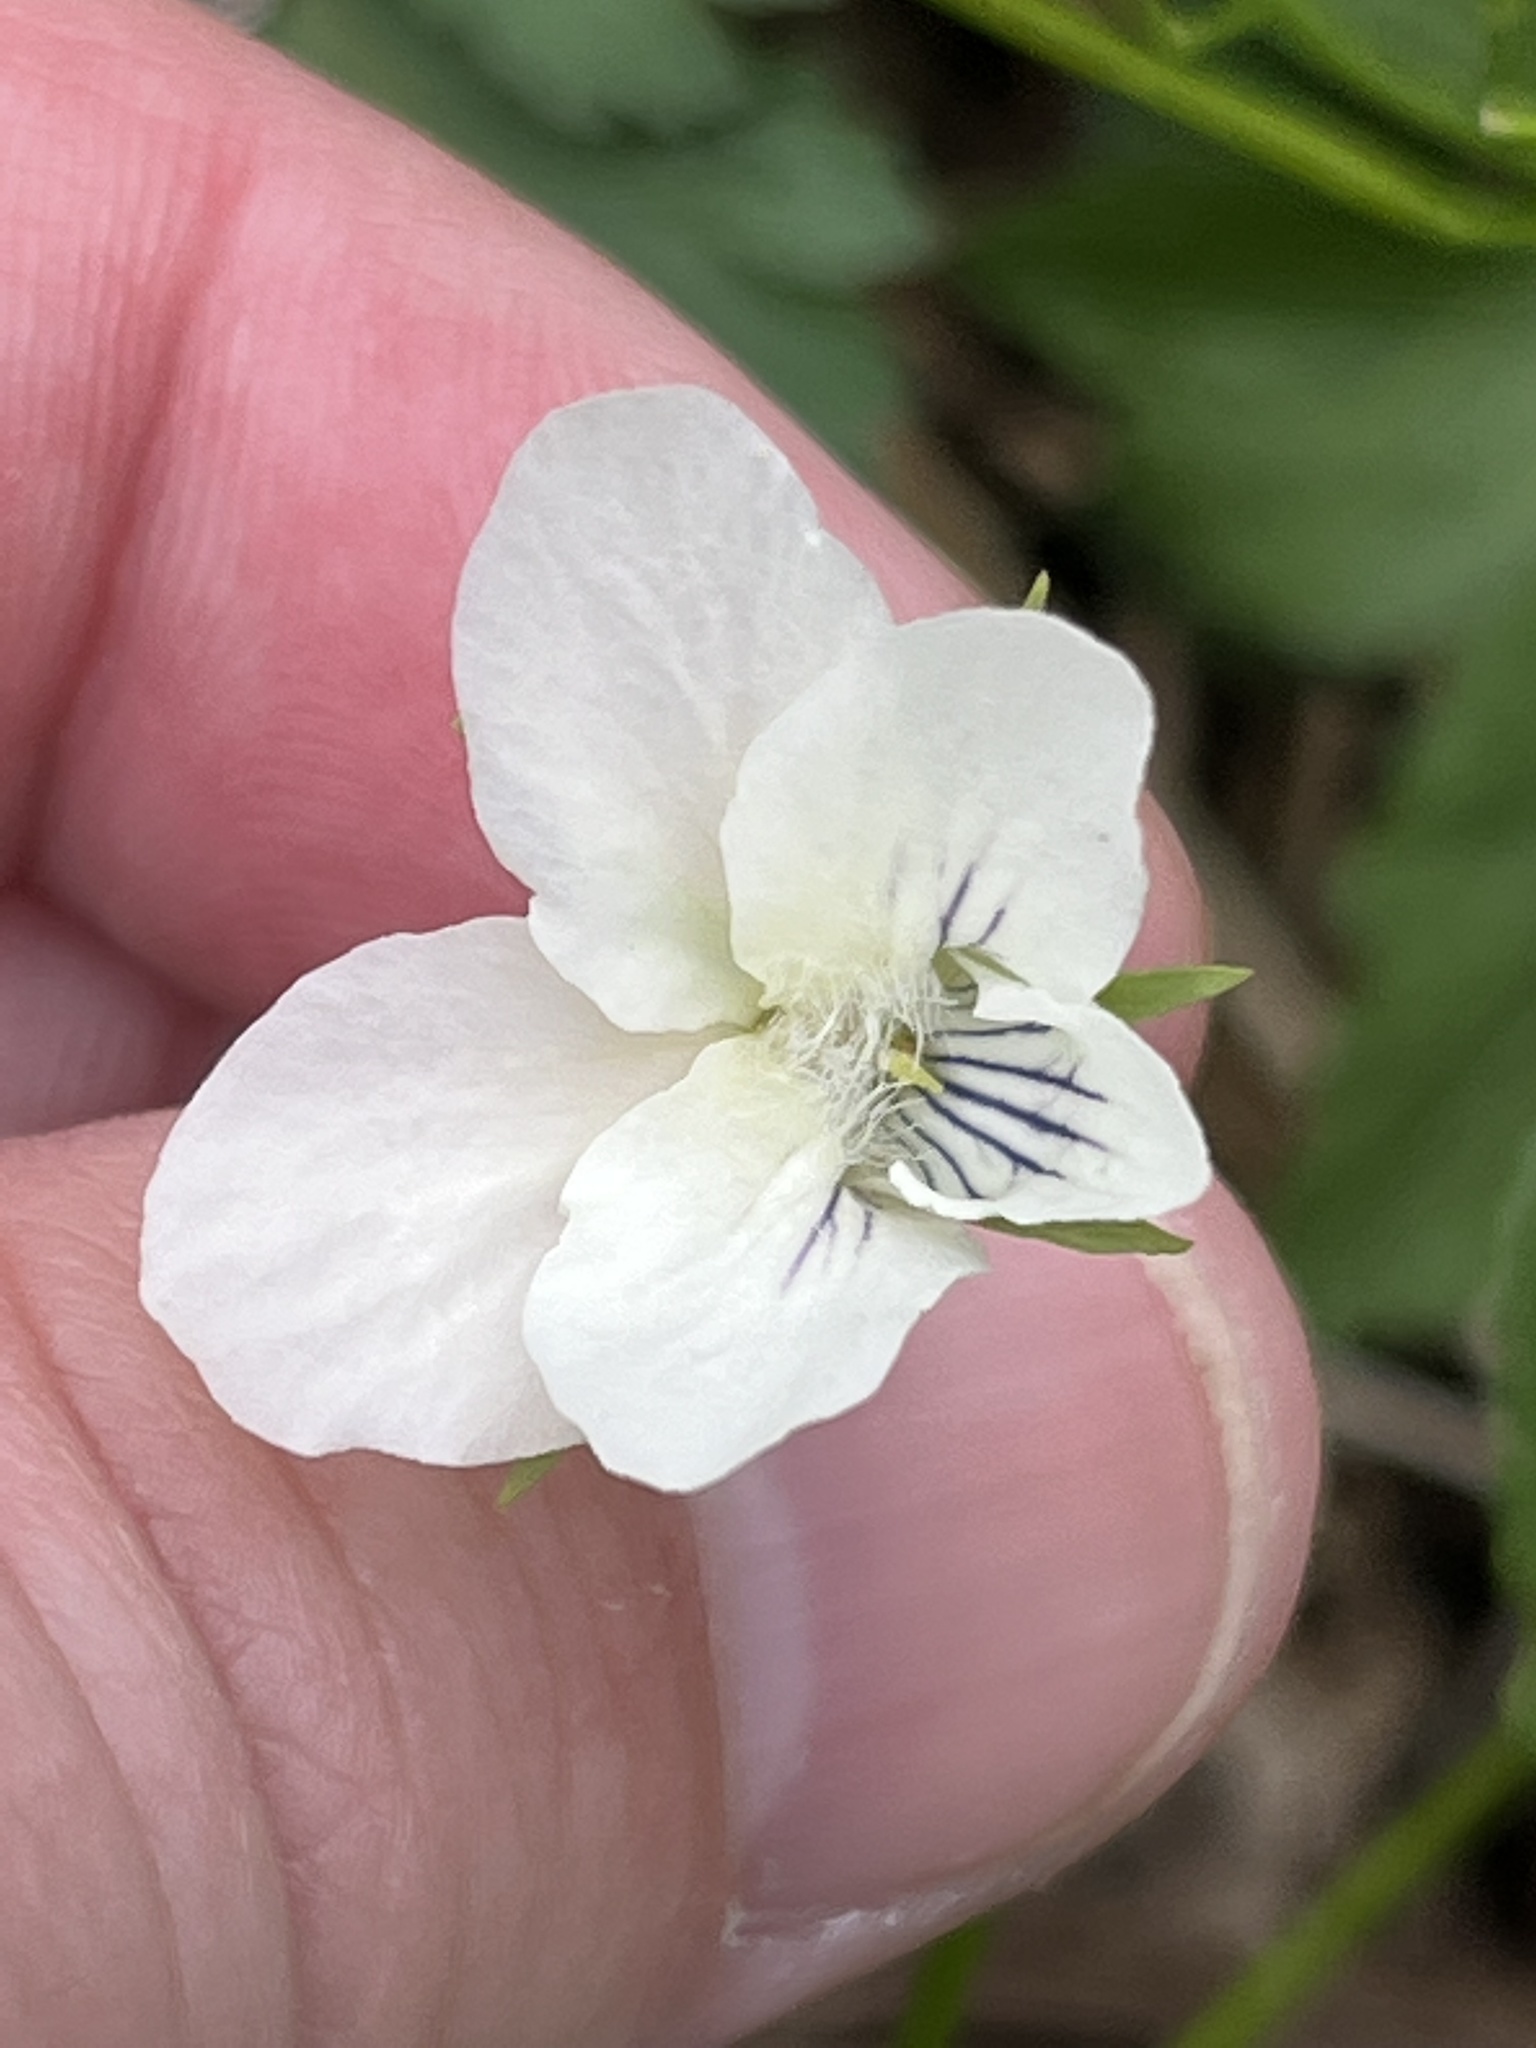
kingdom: Plantae
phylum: Tracheophyta
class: Magnoliopsida
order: Malpighiales
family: Violaceae
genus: Viola
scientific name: Viola striata
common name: Cream violet
